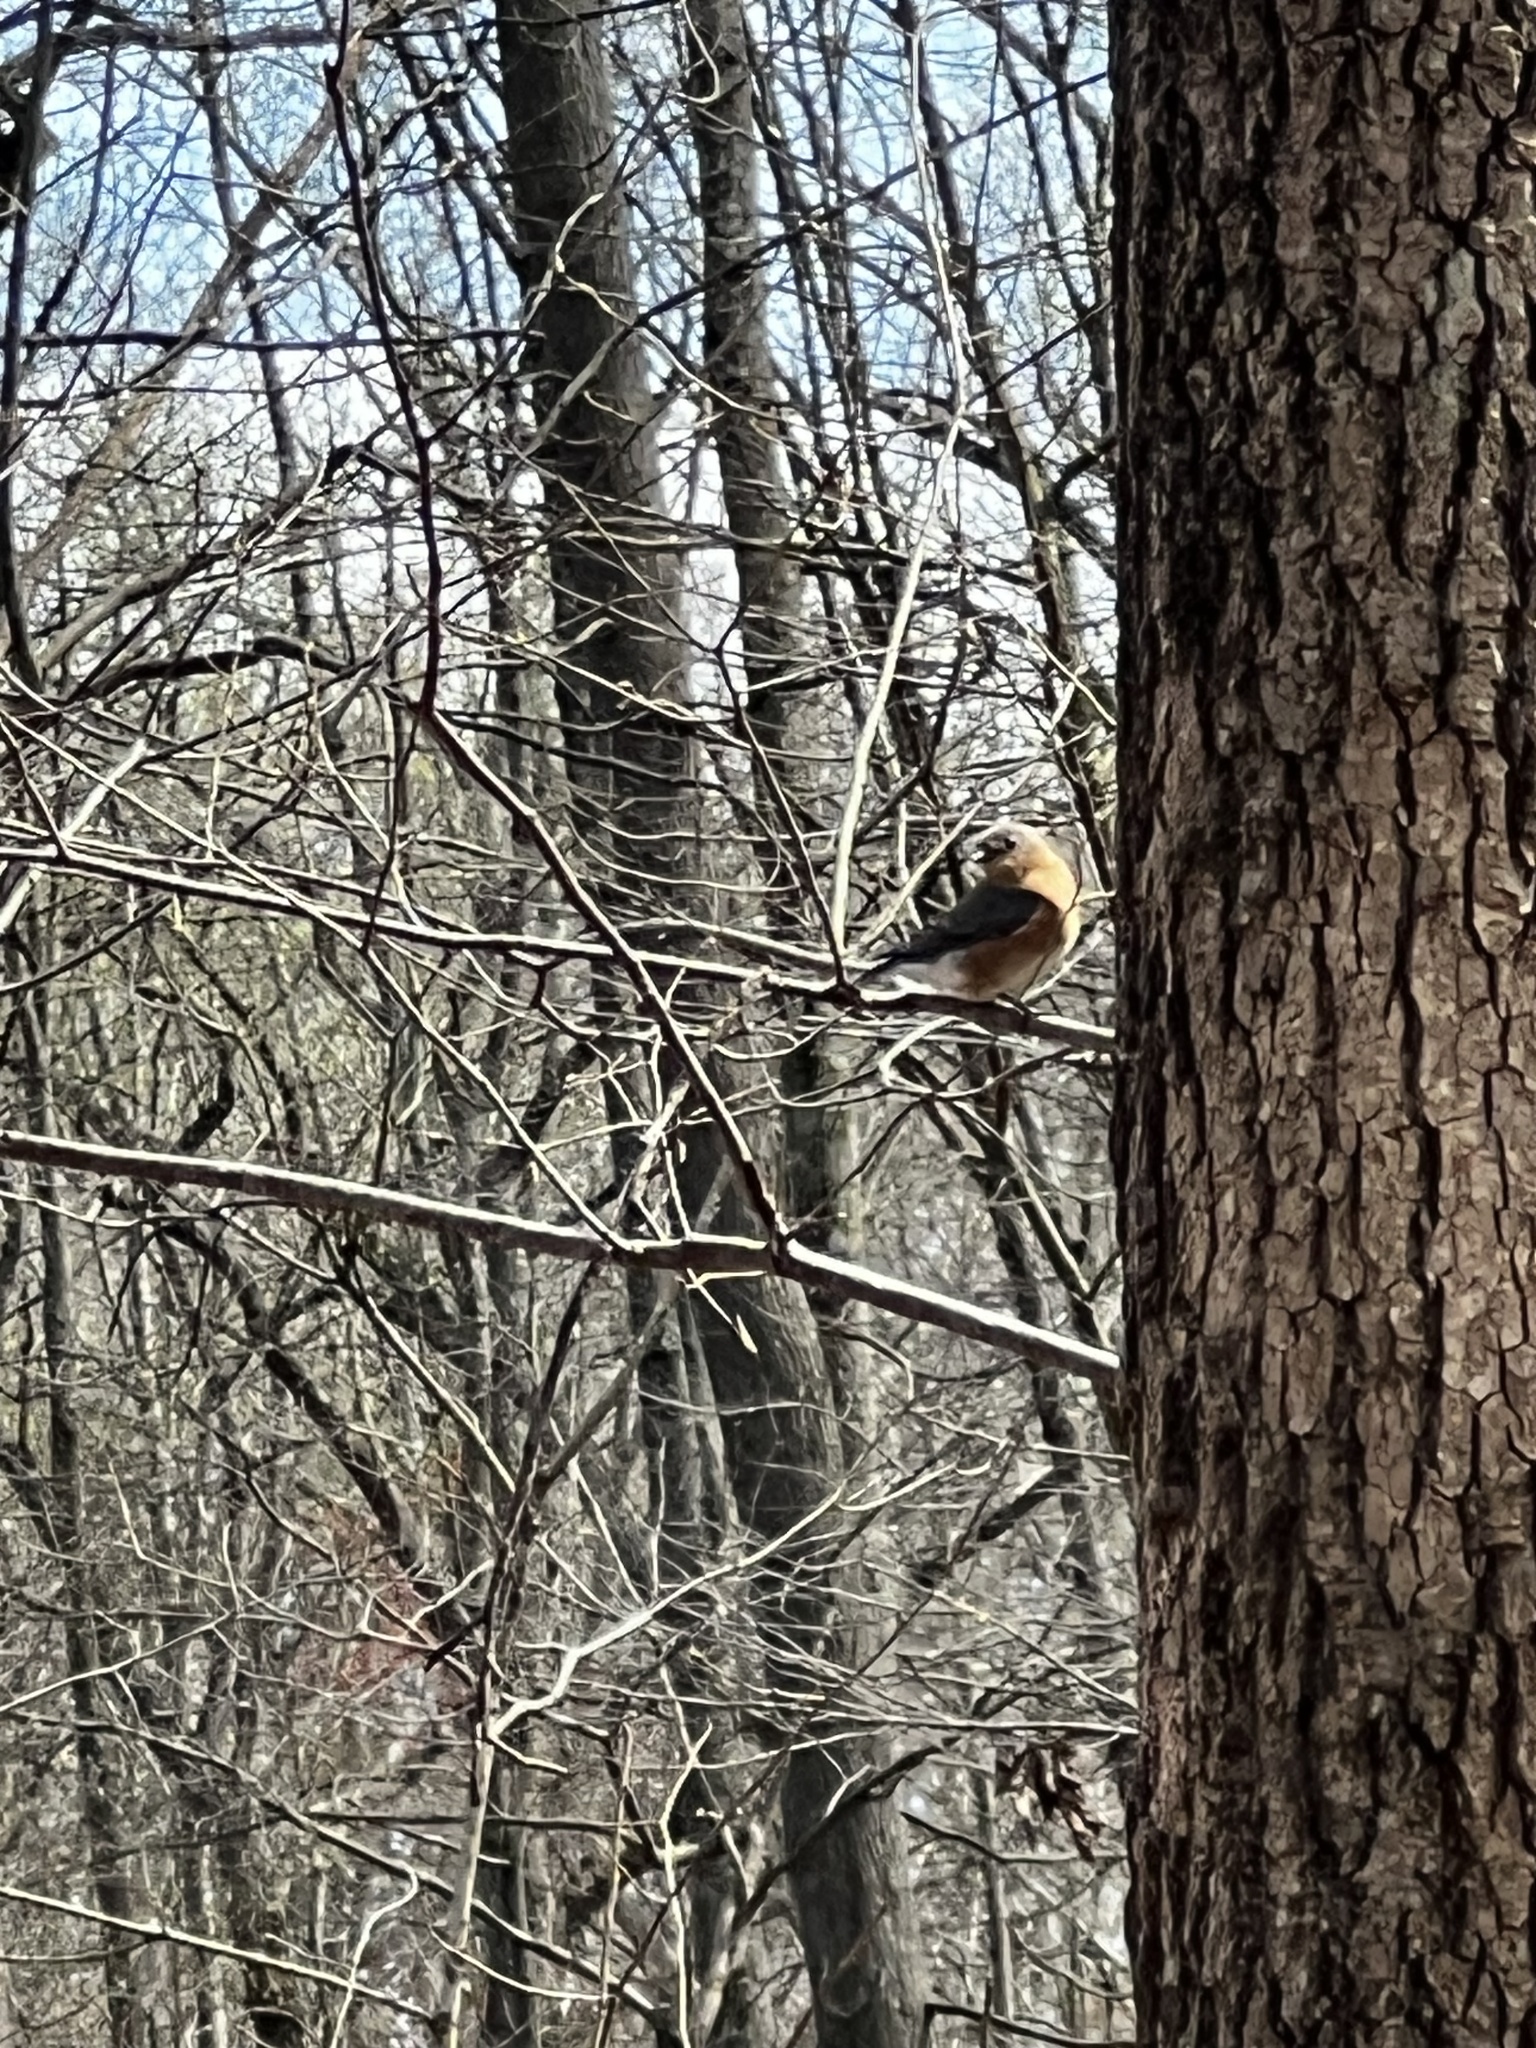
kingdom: Animalia
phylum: Chordata
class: Aves
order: Passeriformes
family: Turdidae
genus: Sialia
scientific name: Sialia sialis
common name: Eastern bluebird
